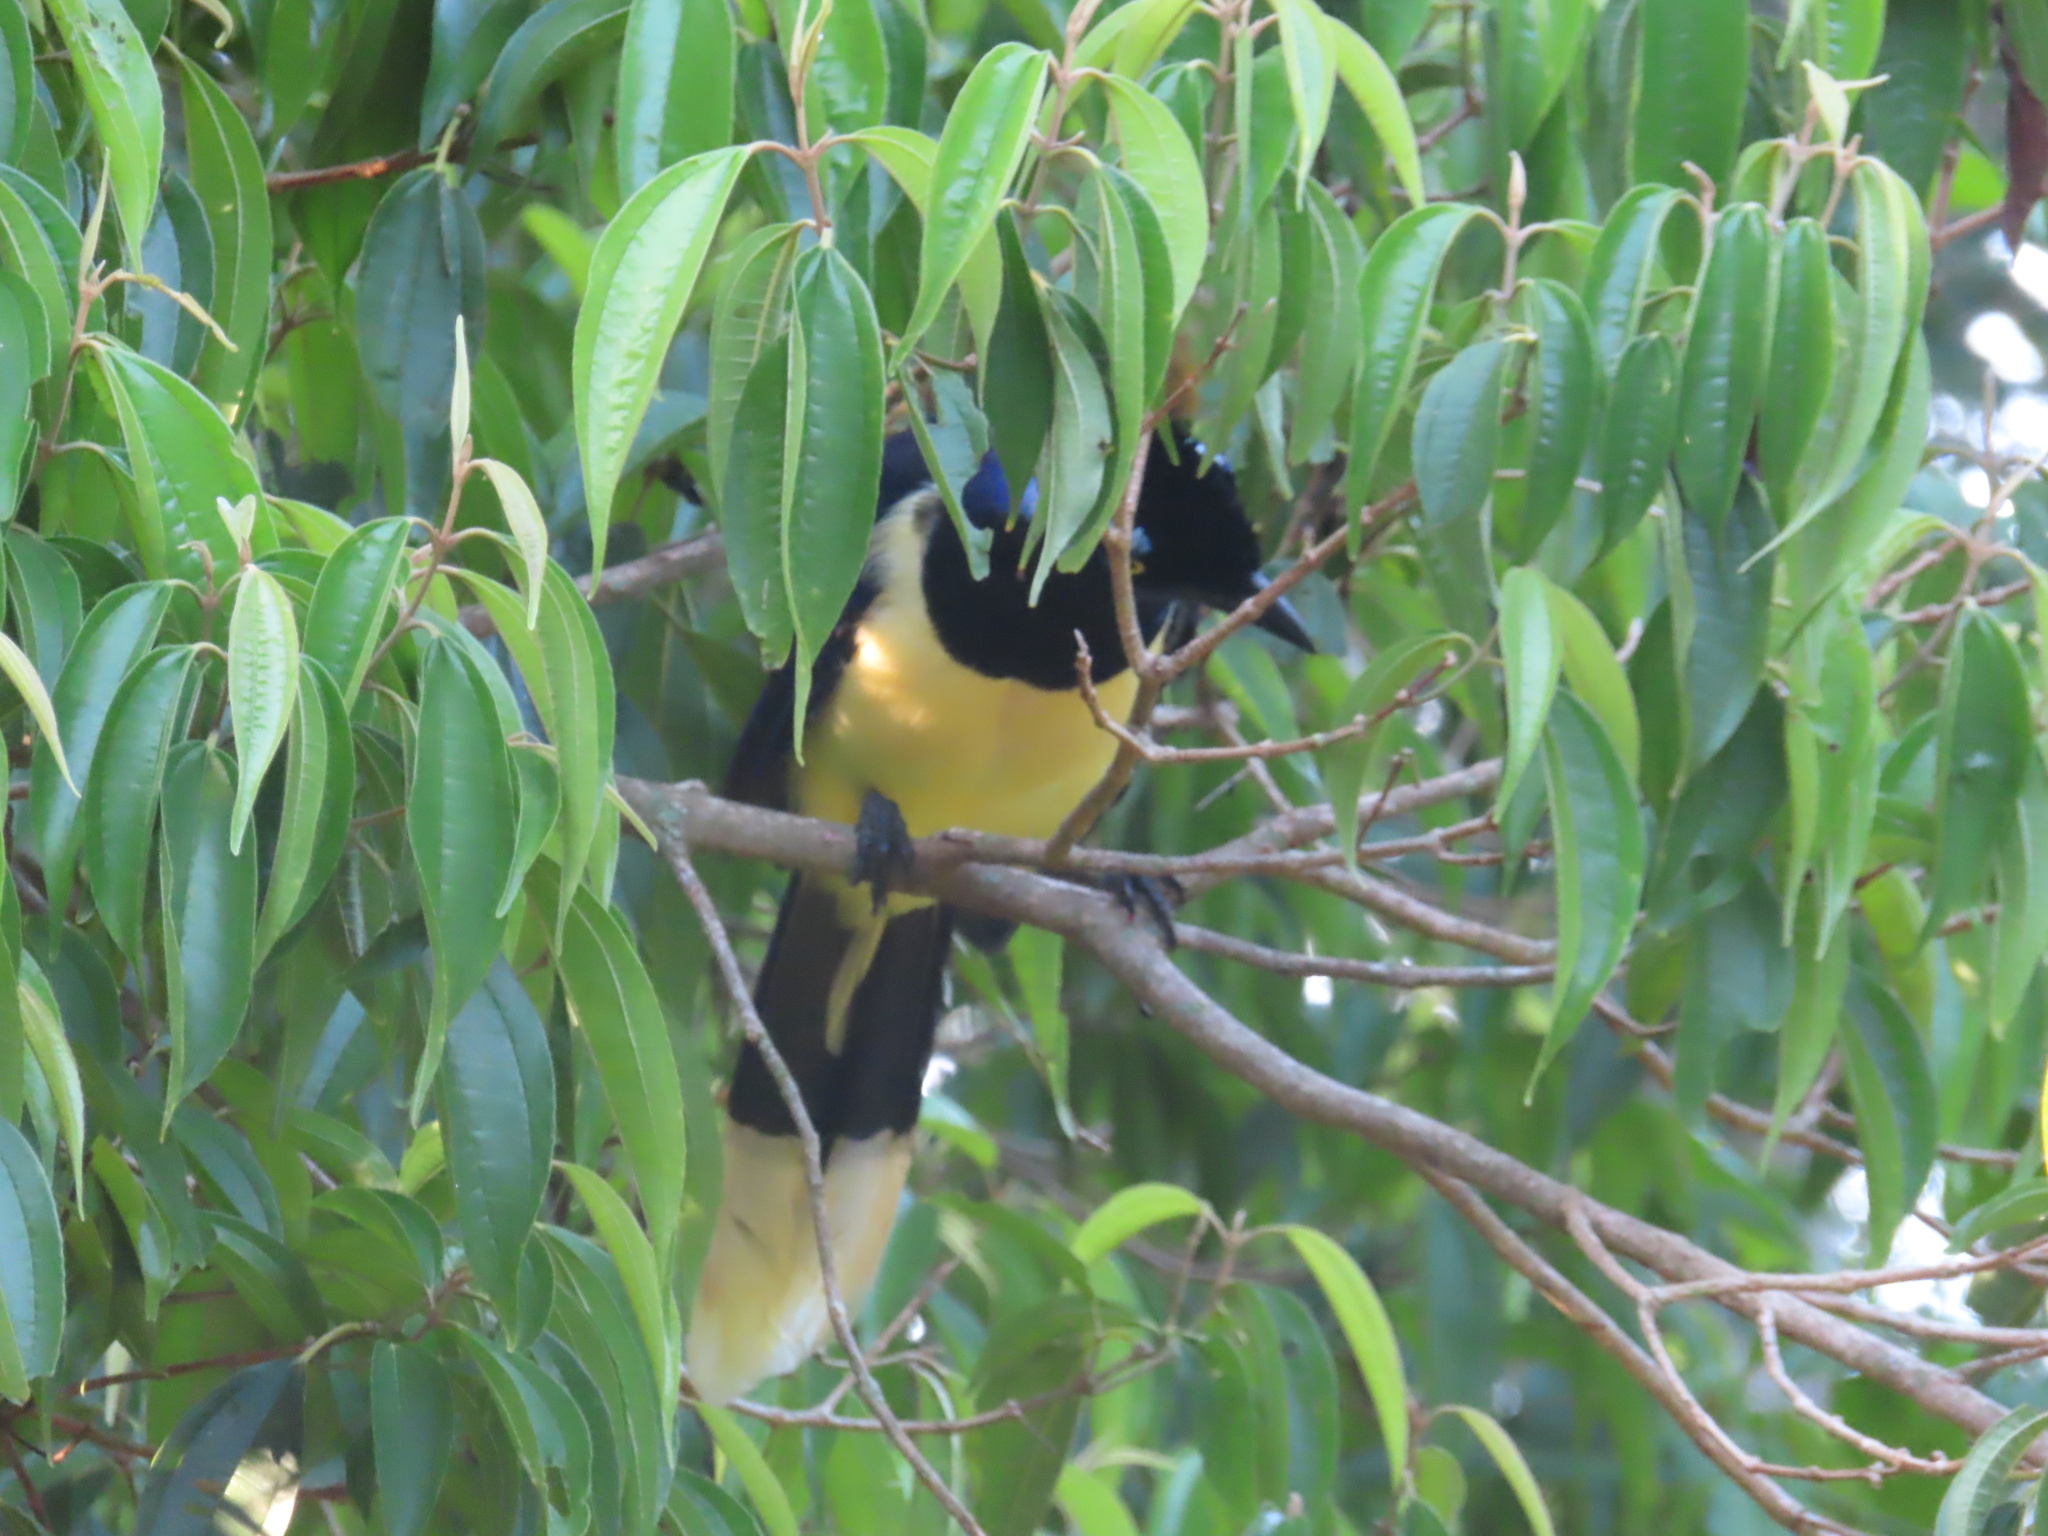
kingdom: Animalia
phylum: Chordata
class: Aves
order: Passeriformes
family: Corvidae
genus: Cyanocorax
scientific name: Cyanocorax chrysops
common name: Plush-crested jay
